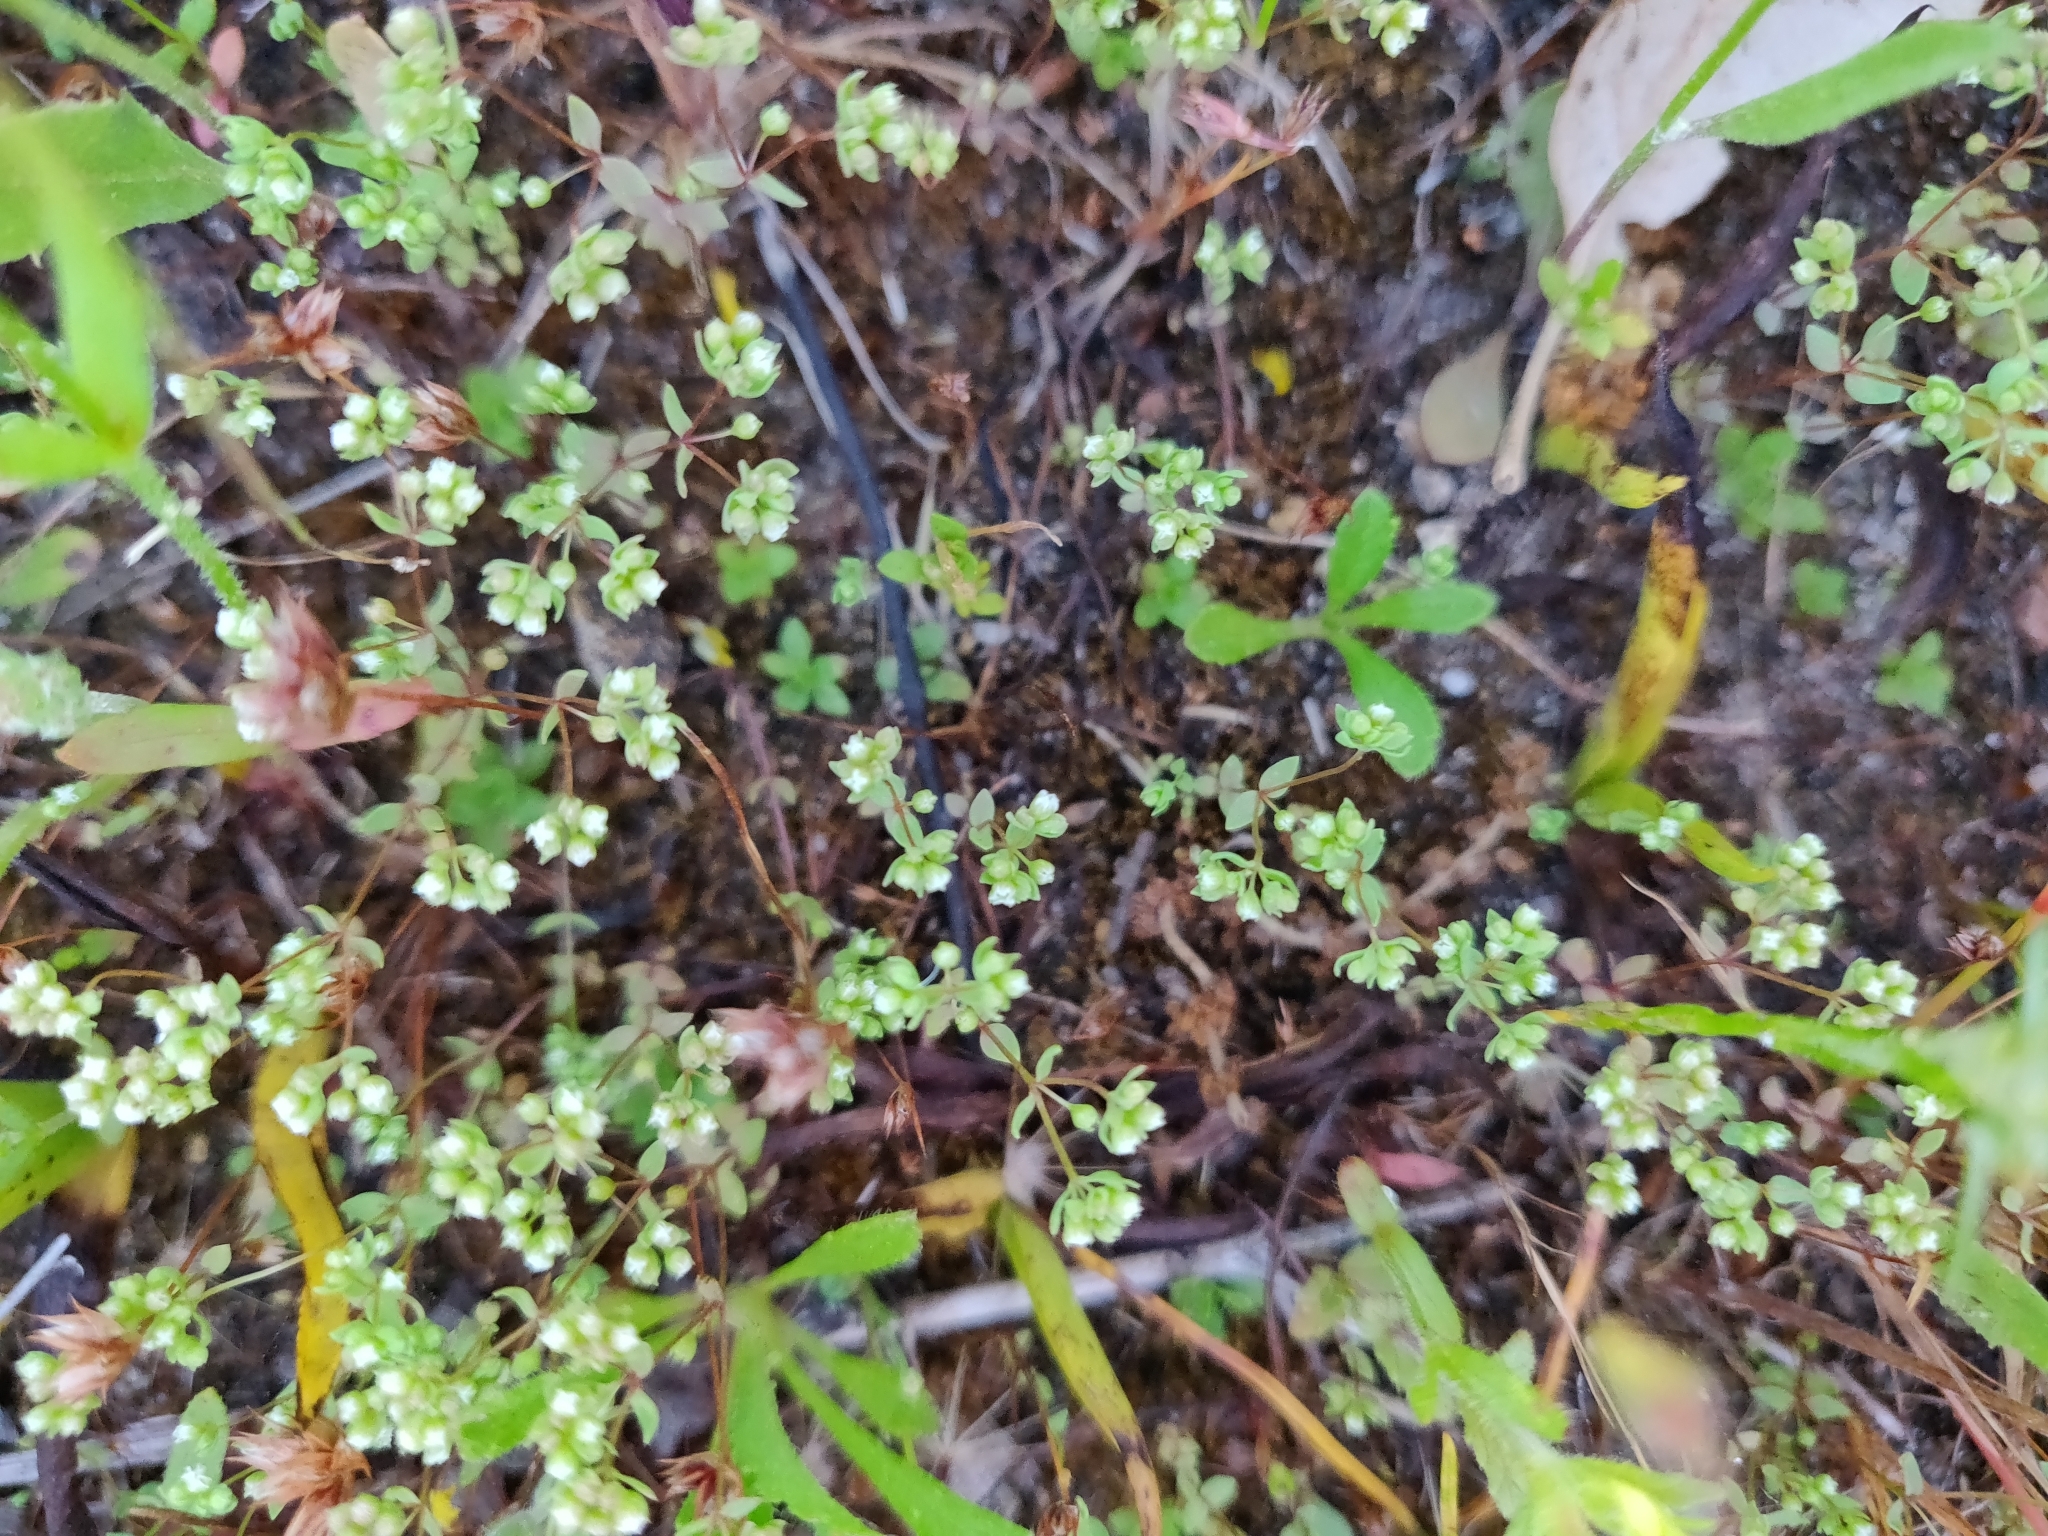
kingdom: Plantae
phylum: Tracheophyta
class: Magnoliopsida
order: Malpighiales
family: Linaceae
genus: Radiola
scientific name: Radiola linoides
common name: Allseed
